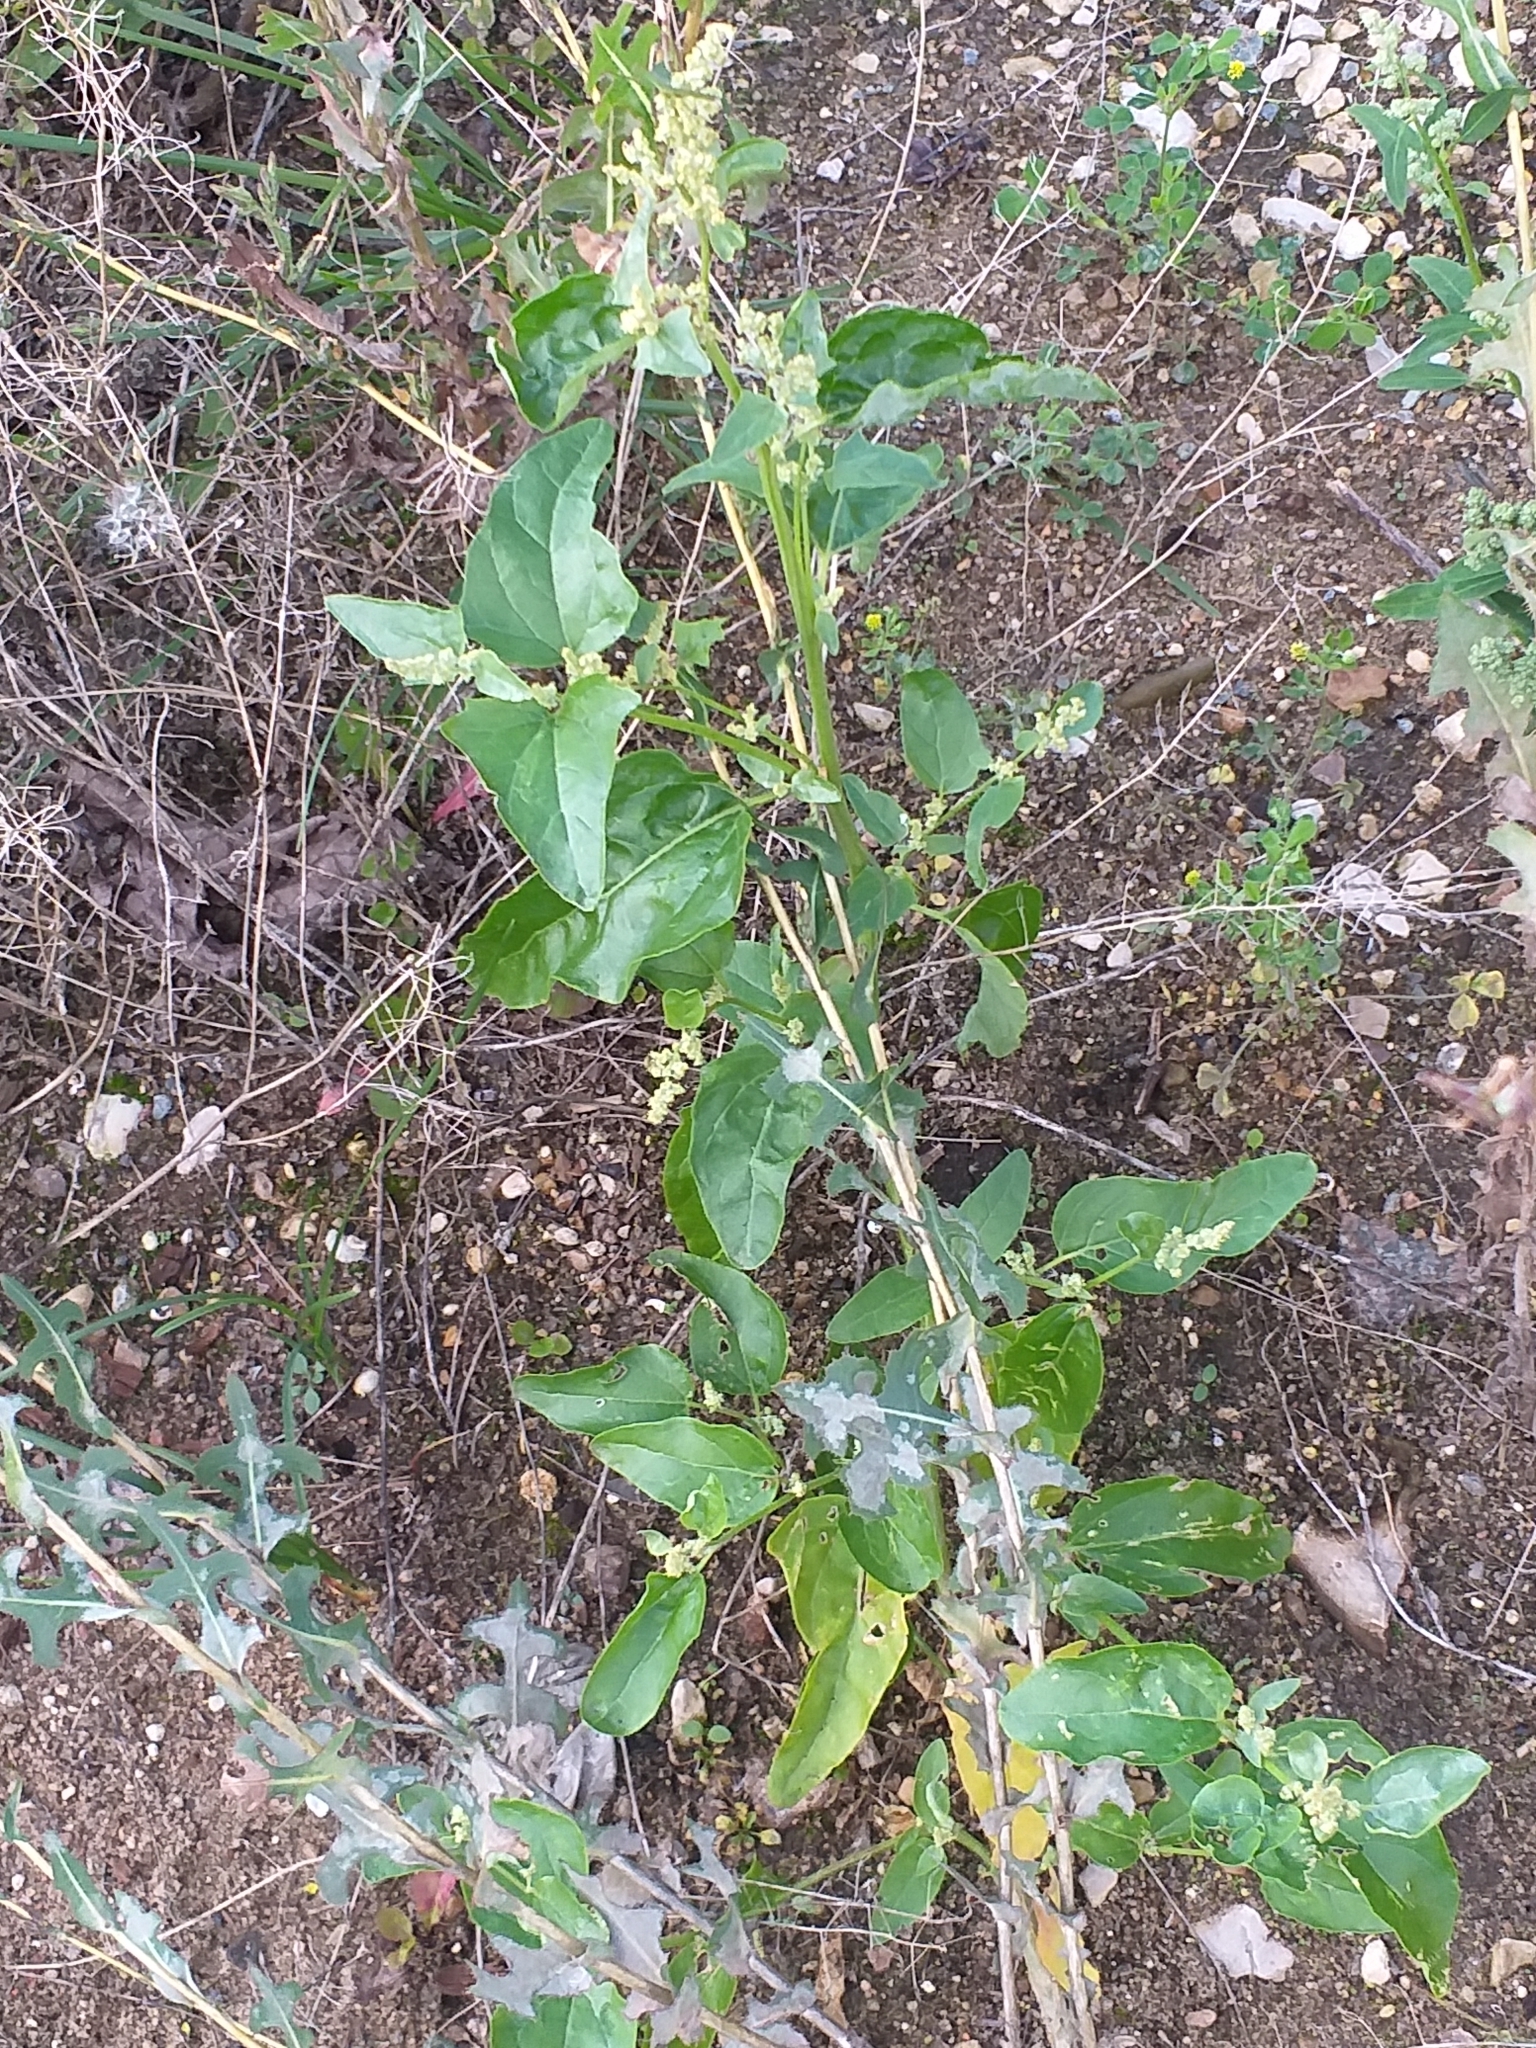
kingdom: Plantae
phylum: Tracheophyta
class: Magnoliopsida
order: Caryophyllales
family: Amaranthaceae
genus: Atriplex
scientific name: Atriplex sagittata
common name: Purple orache
